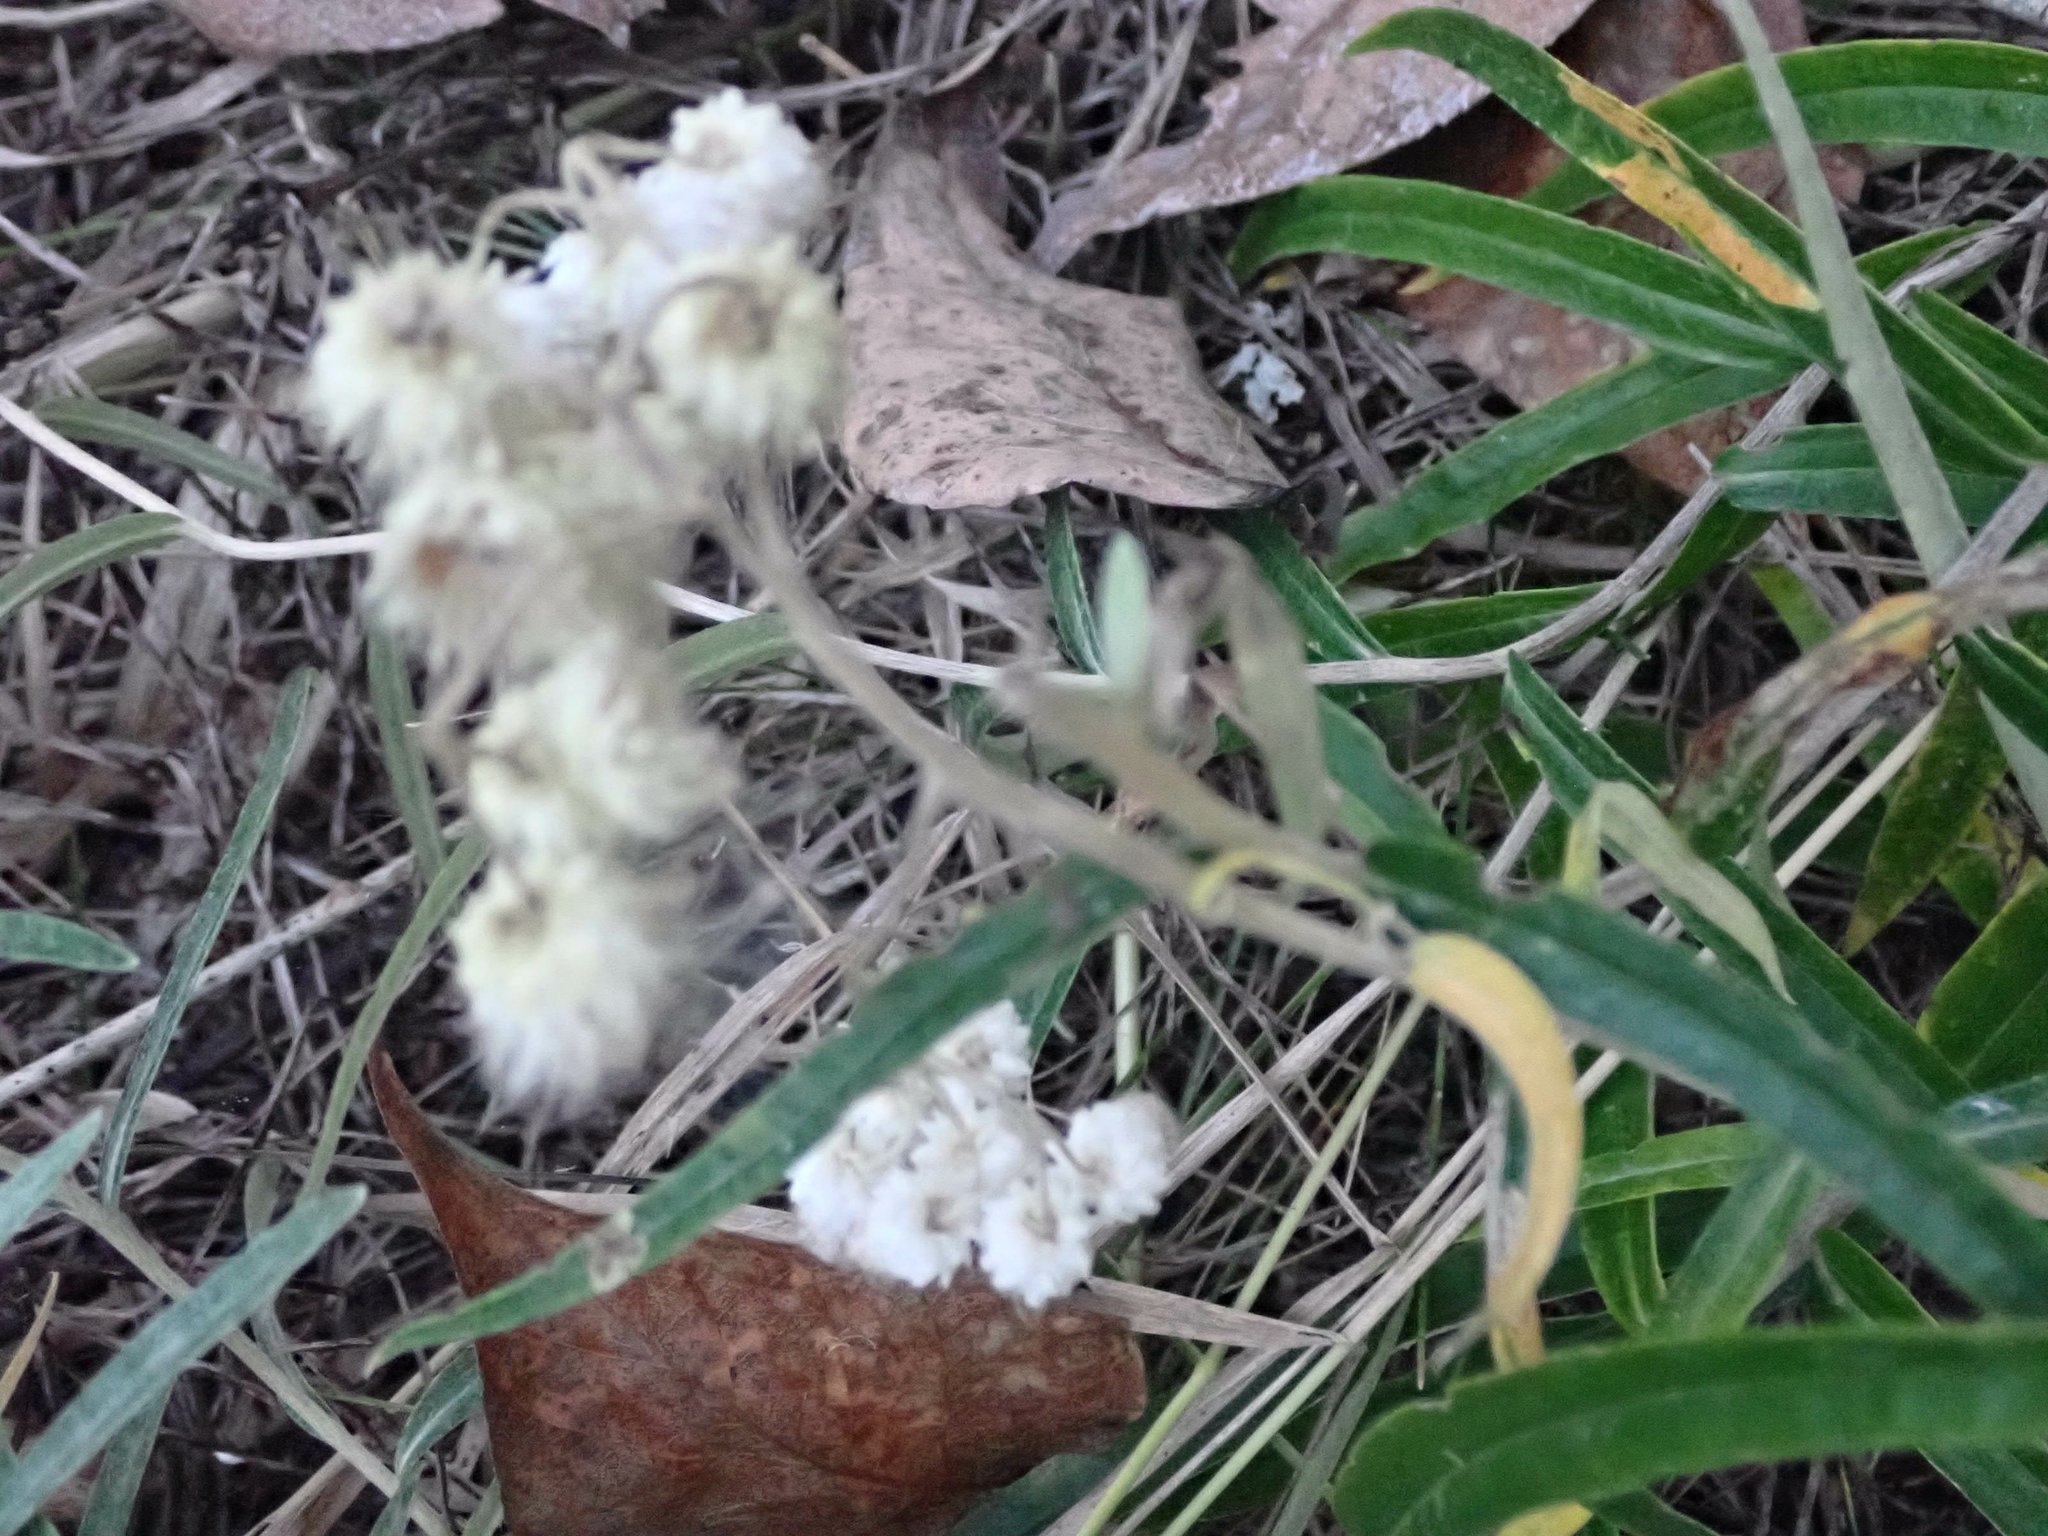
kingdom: Plantae
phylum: Tracheophyta
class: Magnoliopsida
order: Asterales
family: Asteraceae
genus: Anaphalis
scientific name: Anaphalis margaritacea
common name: Pearly everlasting
